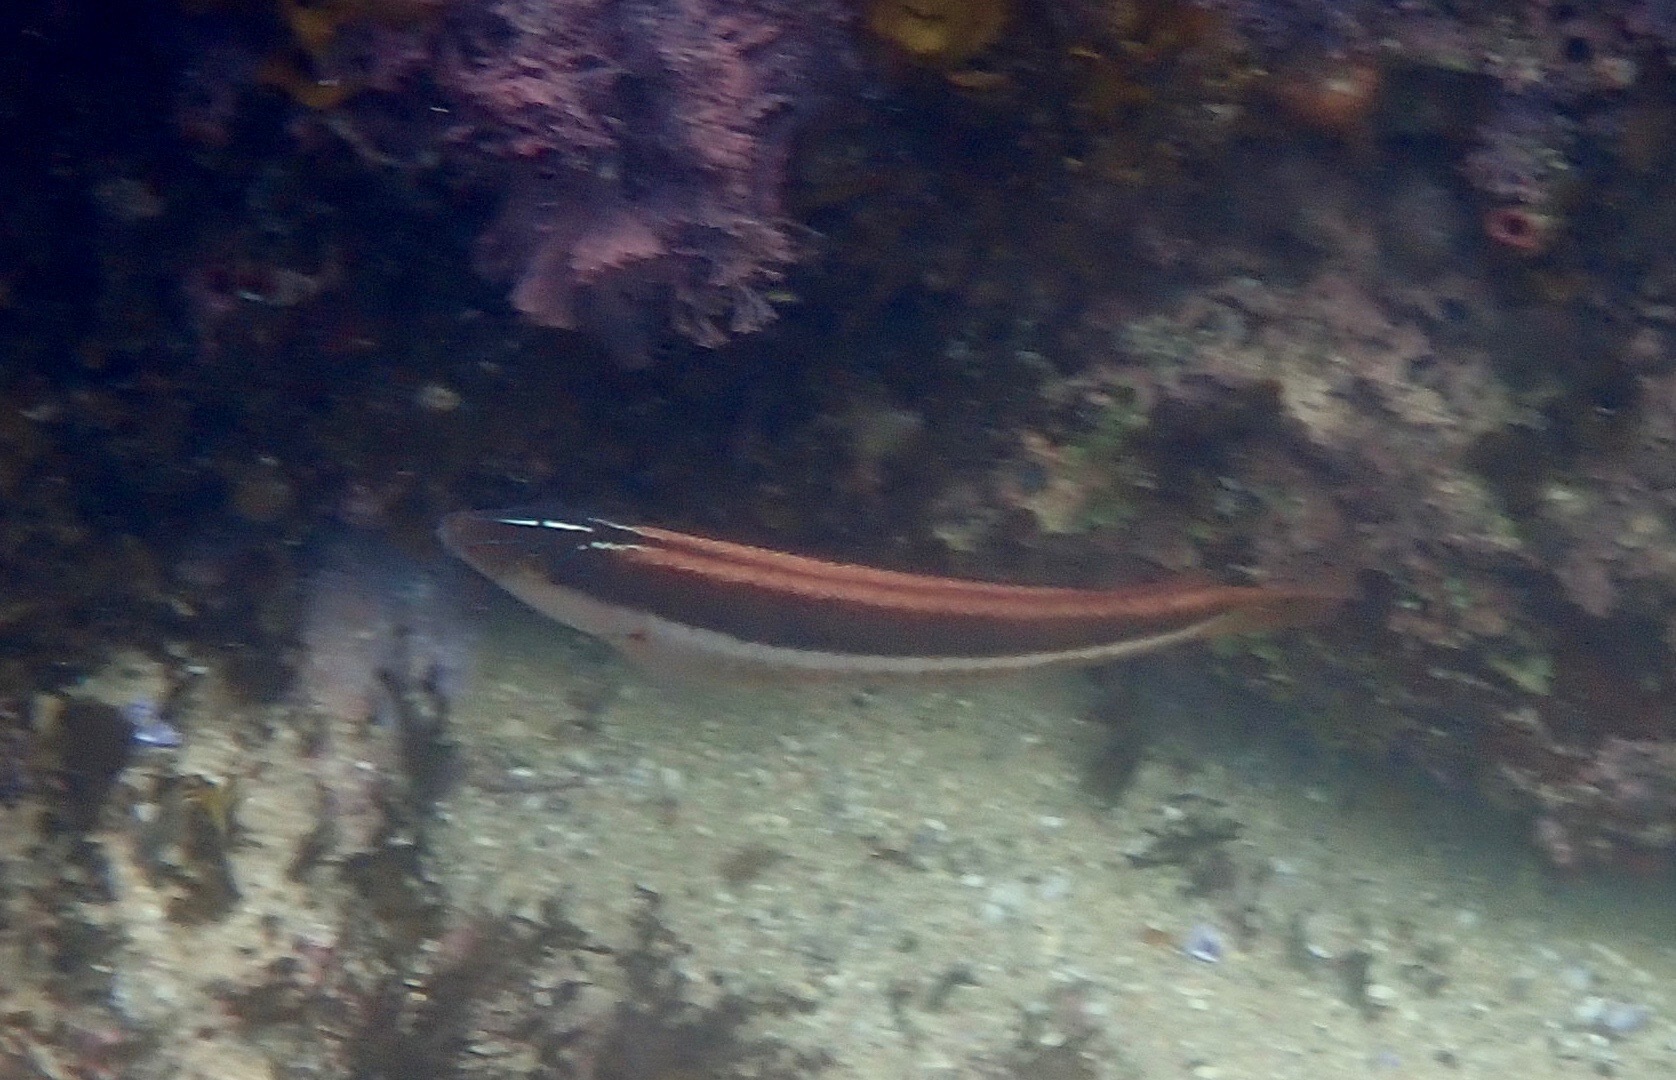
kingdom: Animalia
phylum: Chordata
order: Perciformes
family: Labridae
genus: Ophthalmolepis
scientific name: Ophthalmolepis lineolata
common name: Maori wrasse
